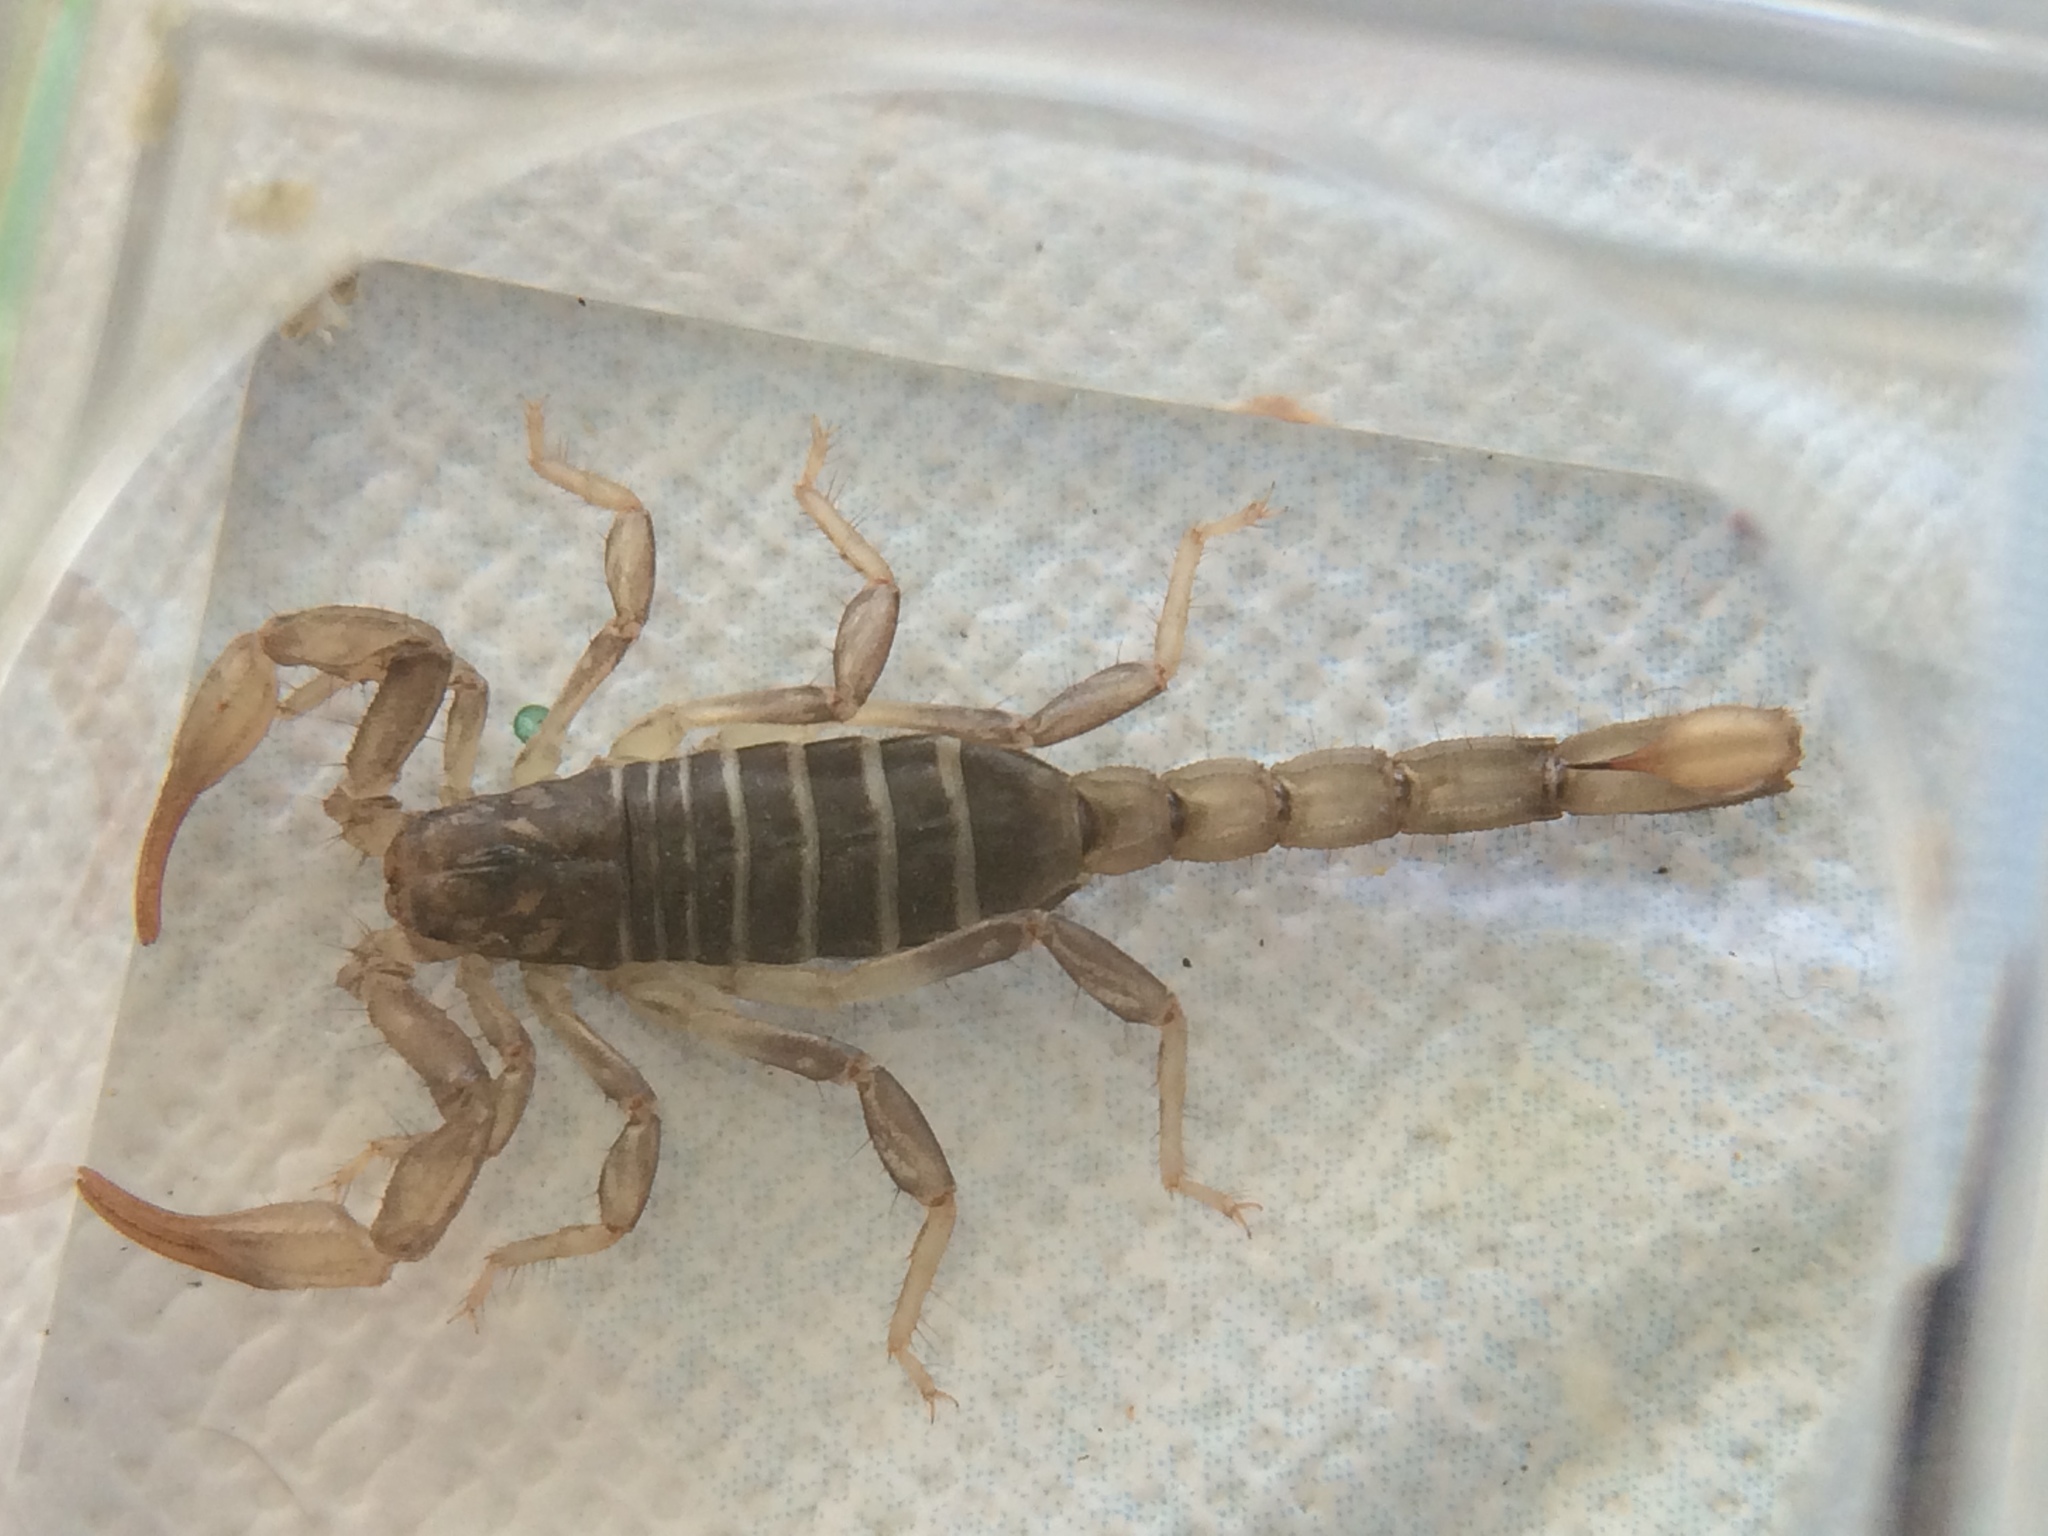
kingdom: Animalia
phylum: Arthropoda
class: Arachnida
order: Scorpiones
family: Vaejovidae
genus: Paruroctonus
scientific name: Paruroctonus boreus
